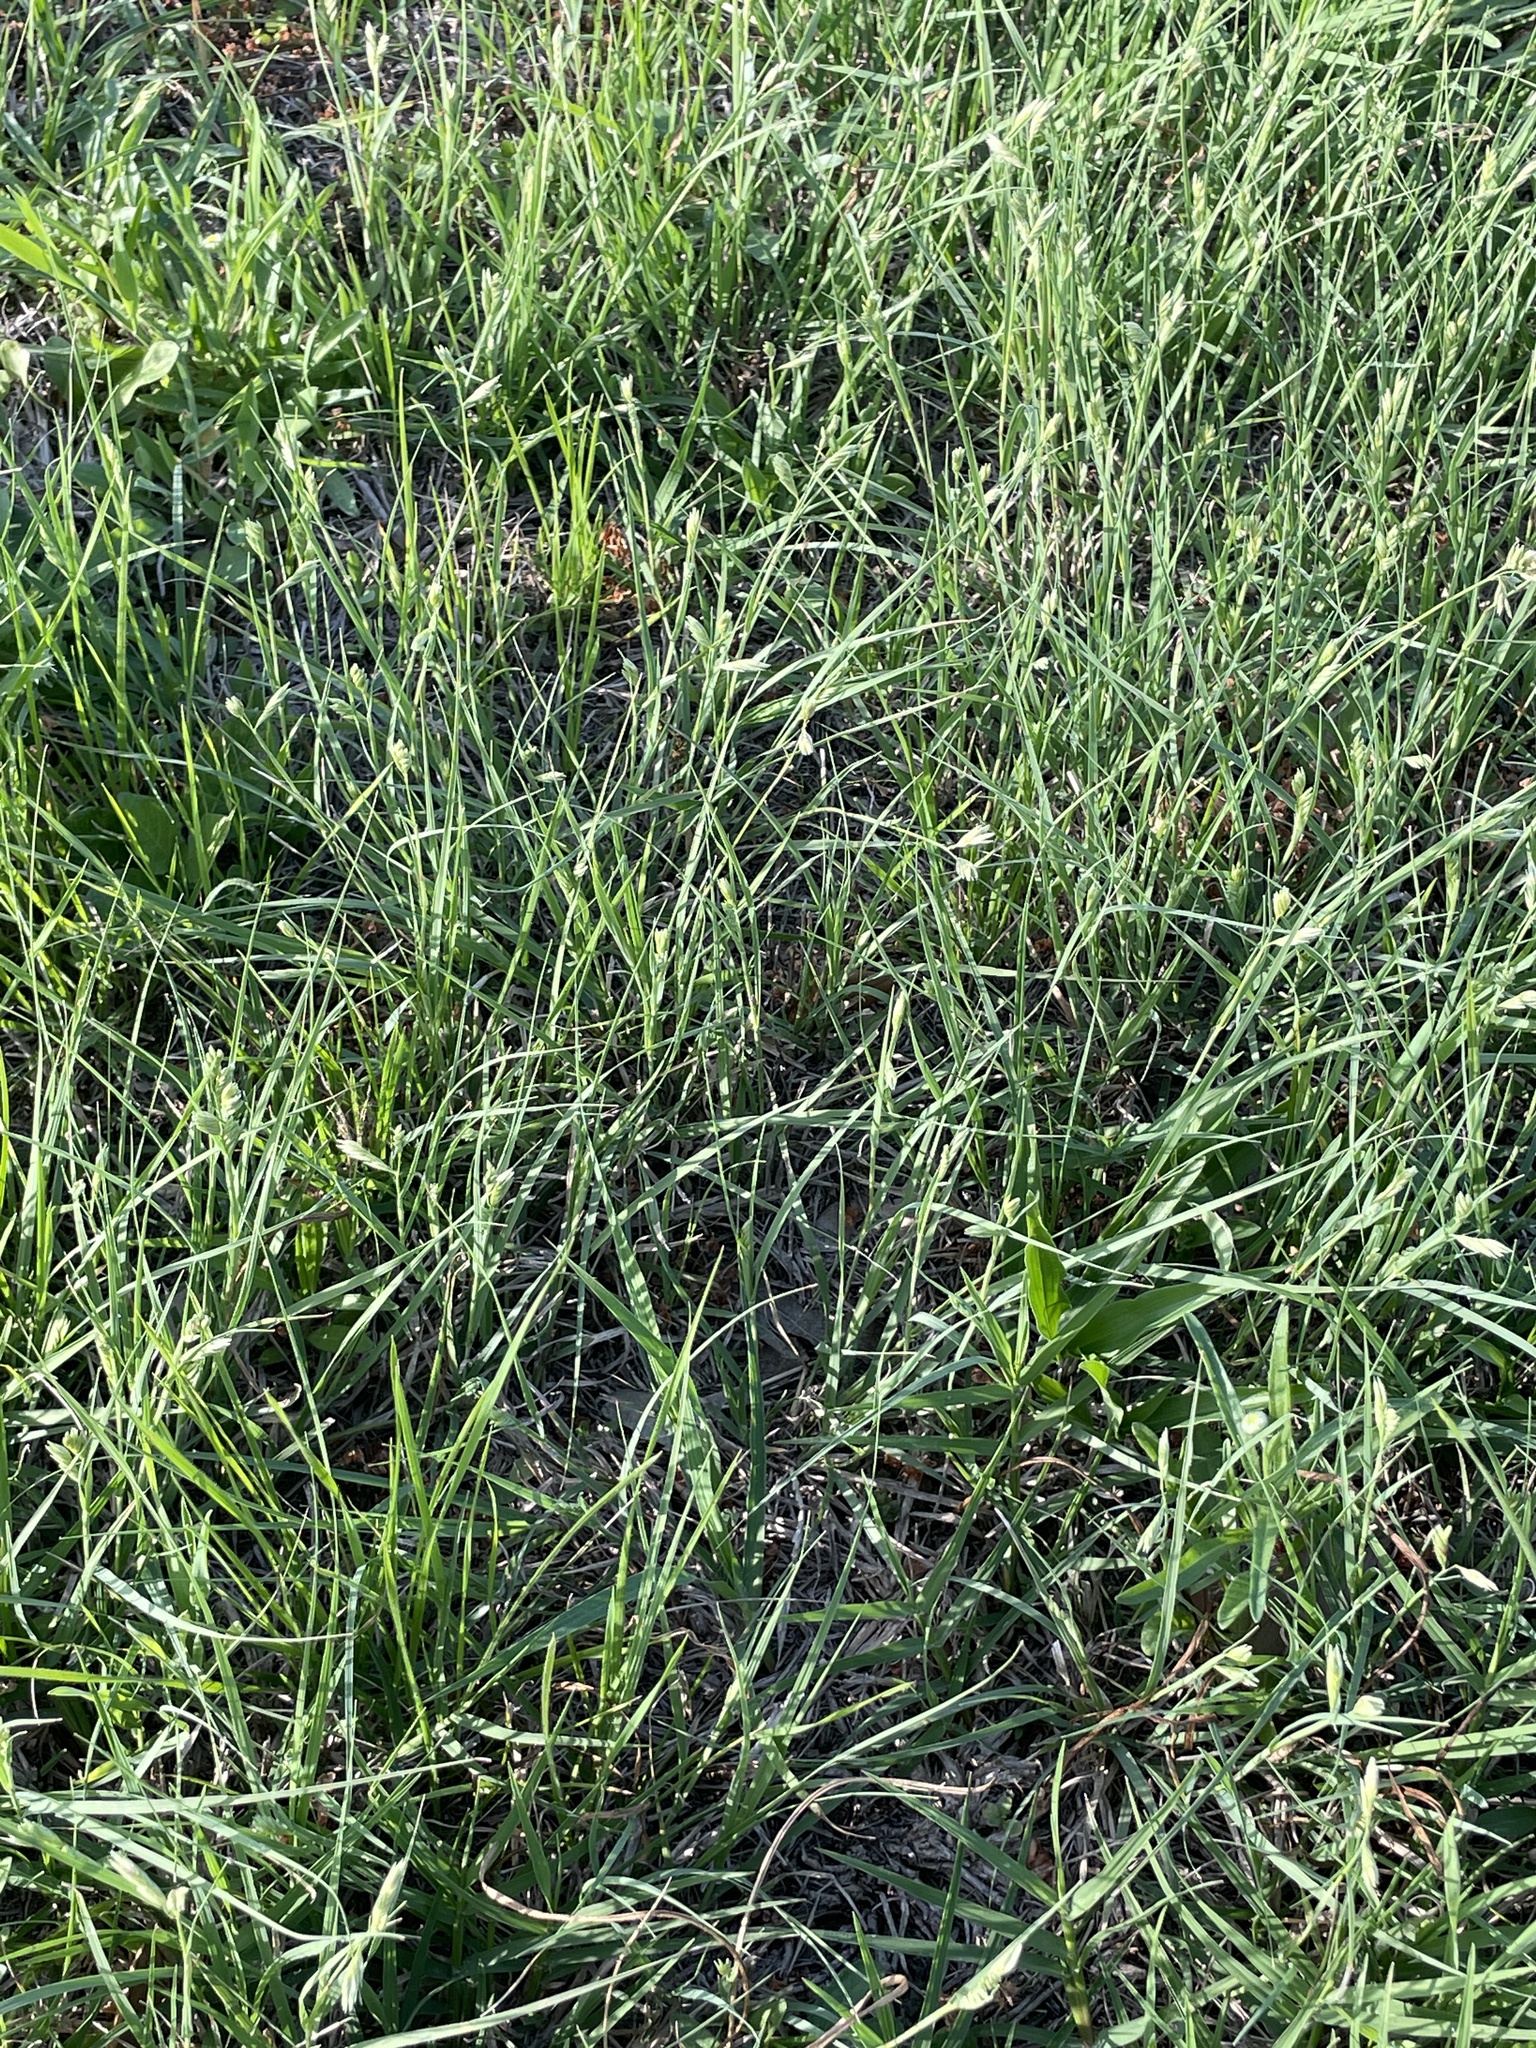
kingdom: Plantae
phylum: Tracheophyta
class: Liliopsida
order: Poales
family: Poaceae
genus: Bouteloua
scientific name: Bouteloua dactyloides
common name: Buffalo grass
